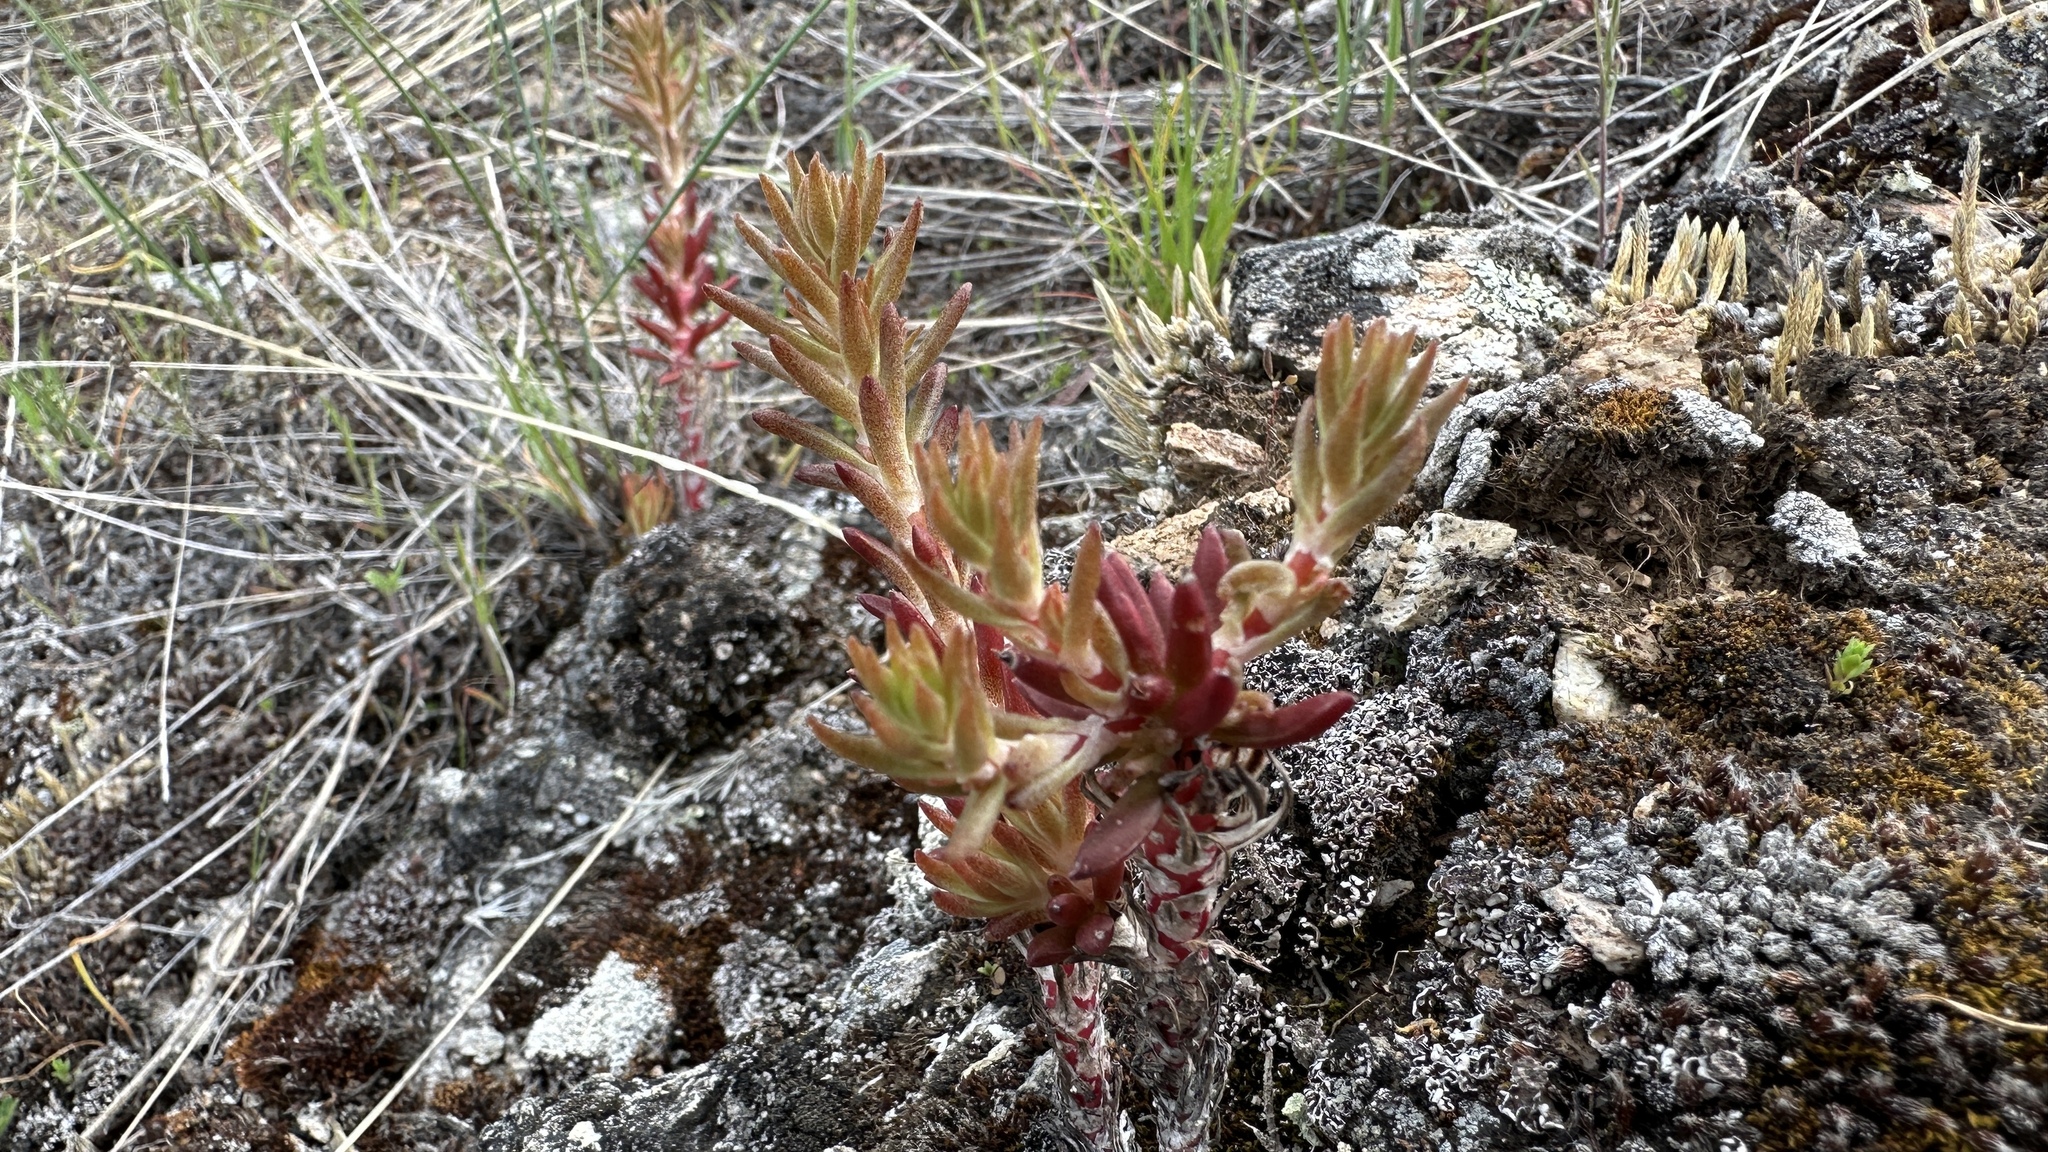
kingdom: Plantae
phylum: Tracheophyta
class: Magnoliopsida
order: Saxifragales
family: Crassulaceae
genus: Sedum
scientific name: Sedum lanceolatum
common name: Common stonecrop
